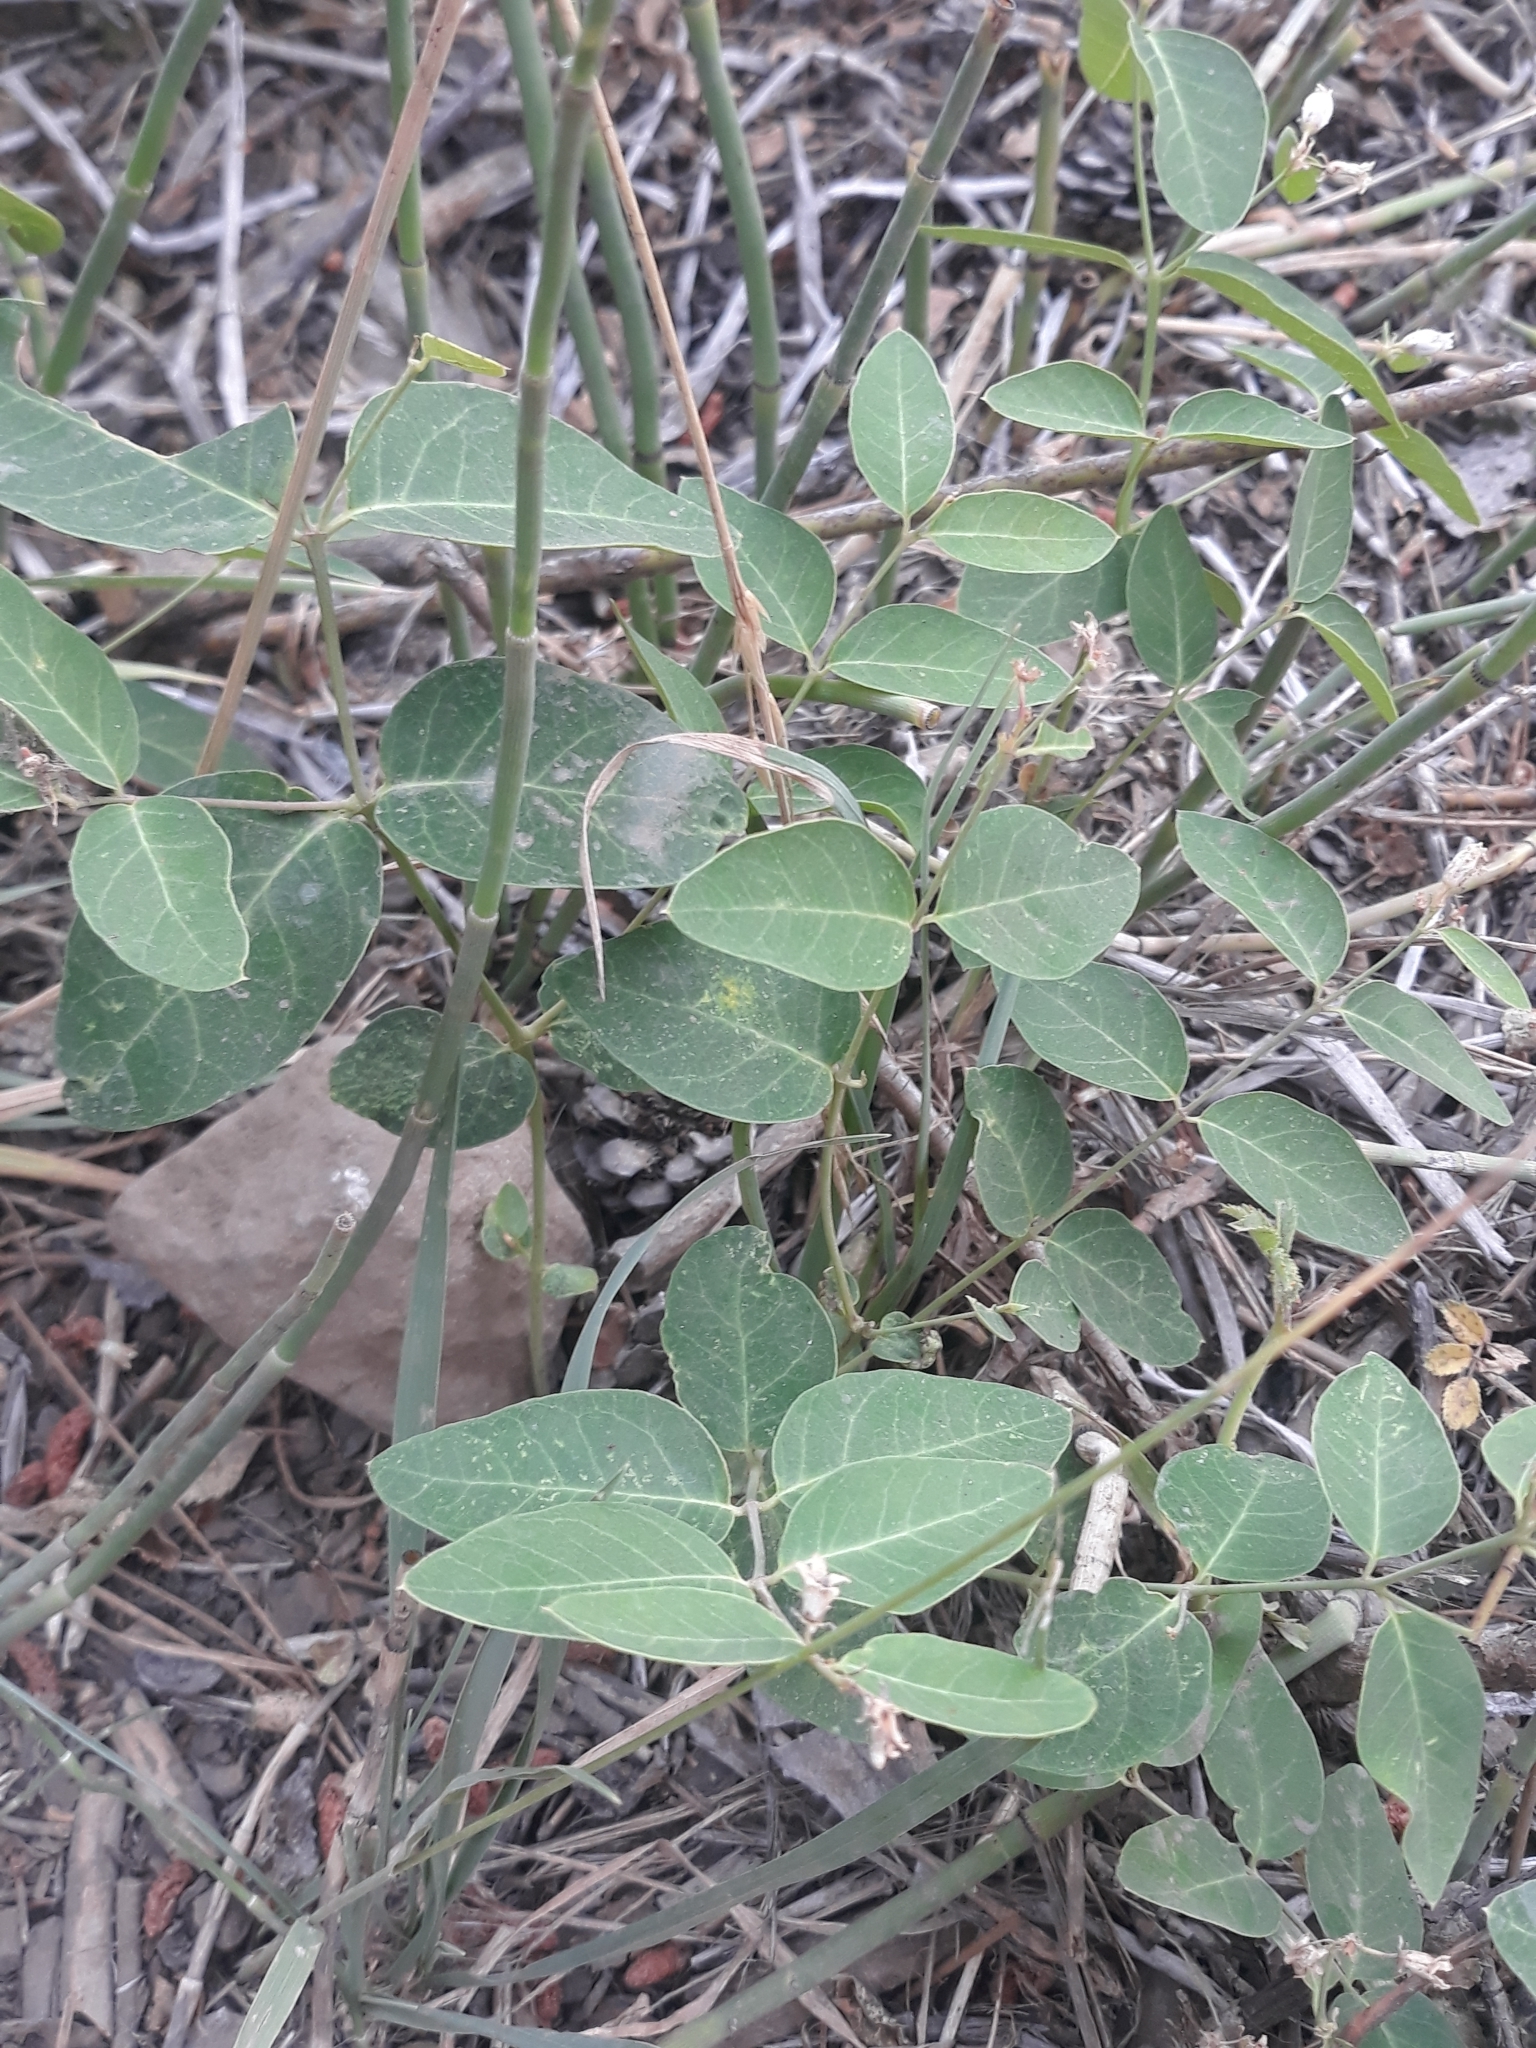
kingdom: Plantae
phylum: Tracheophyta
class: Magnoliopsida
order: Gentianales
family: Apocynaceae
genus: Apocynum
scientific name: Apocynum androsaemifolium
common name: Spreading dogbane
